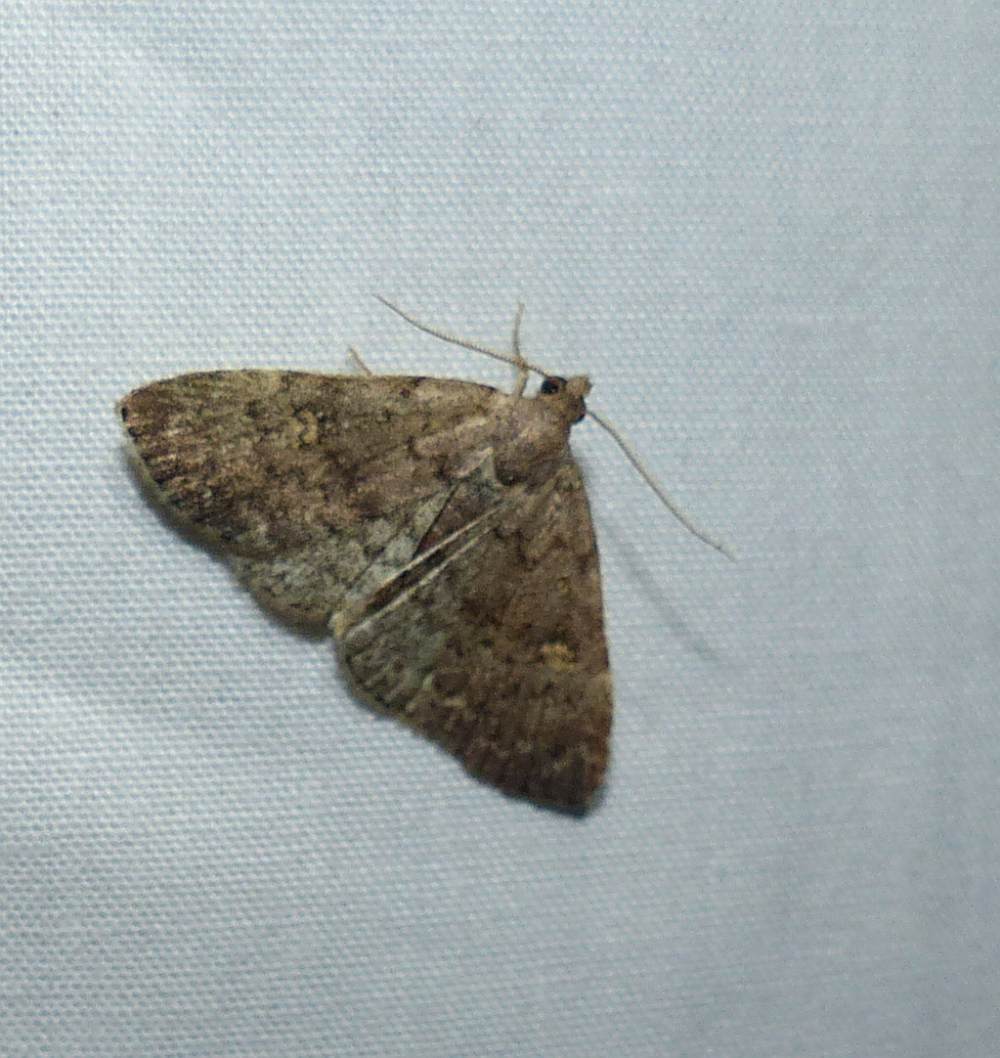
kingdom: Animalia
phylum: Arthropoda
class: Insecta
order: Lepidoptera
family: Erebidae
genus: Idia
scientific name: Idia aemula
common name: Common idia moth
